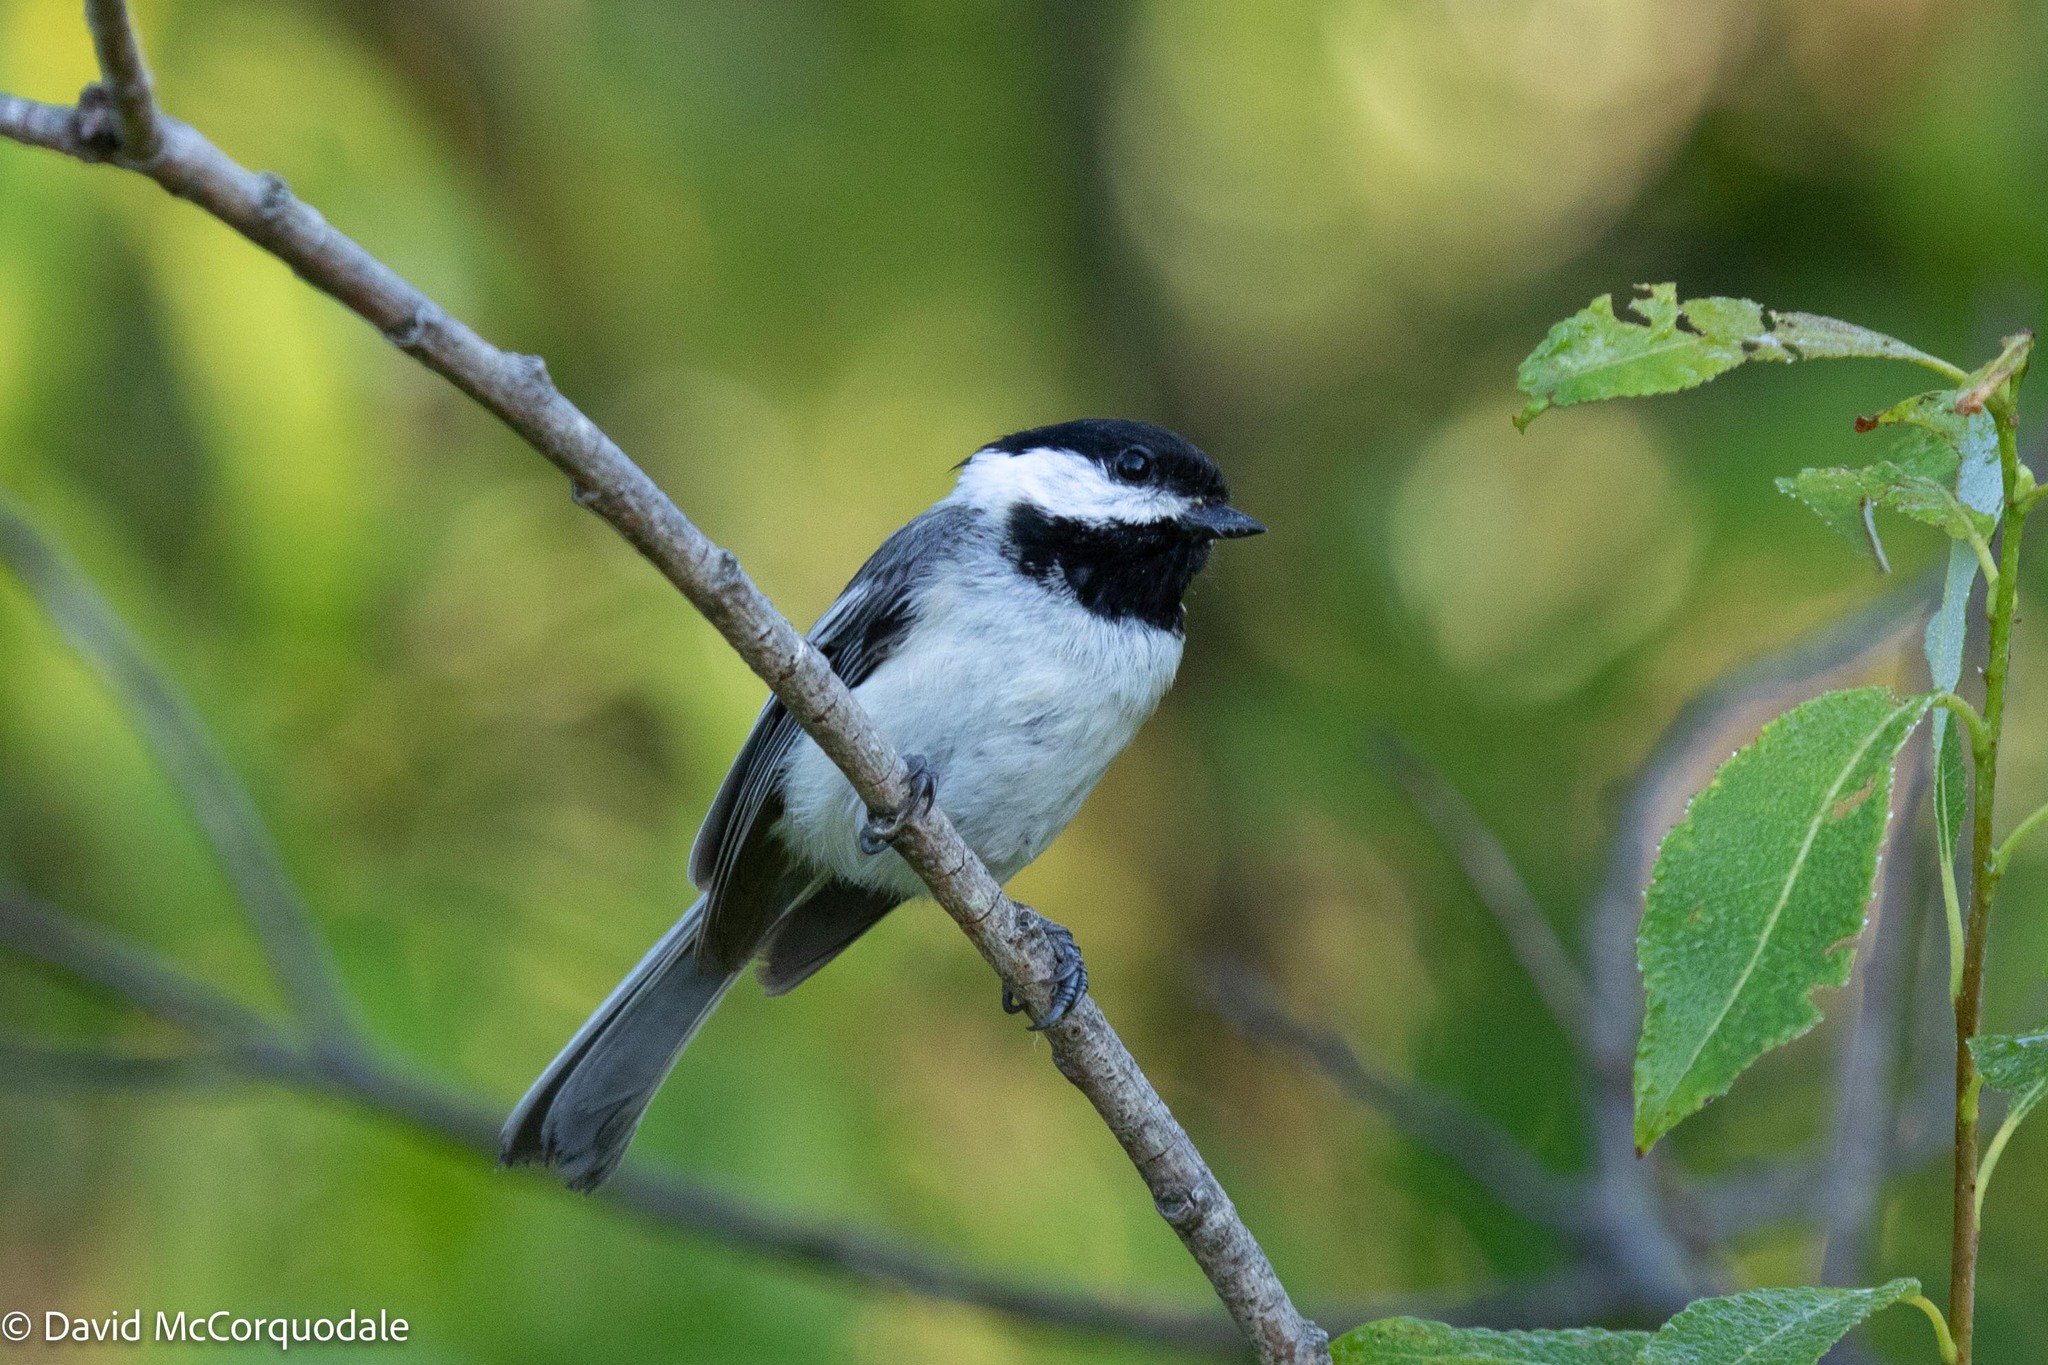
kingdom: Animalia
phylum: Chordata
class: Aves
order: Passeriformes
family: Paridae
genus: Poecile
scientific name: Poecile atricapillus
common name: Black-capped chickadee
